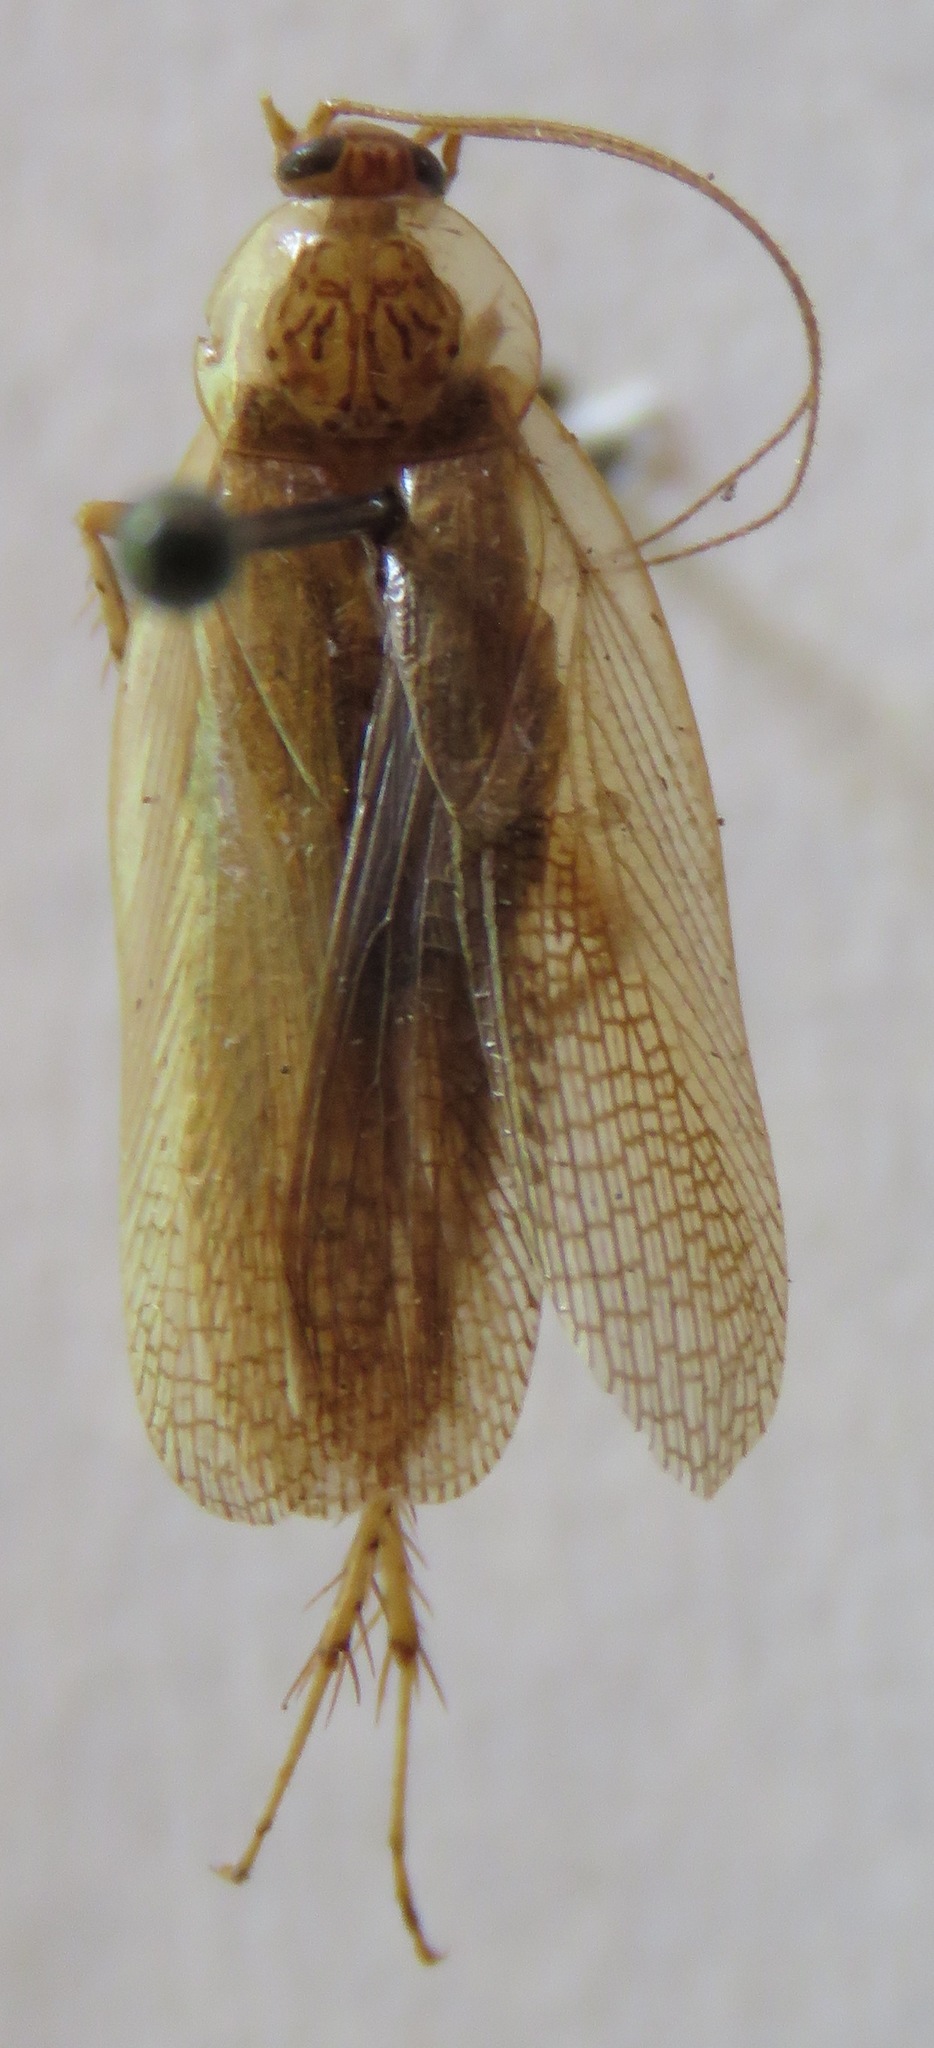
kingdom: Animalia
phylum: Arthropoda
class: Insecta
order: Blattodea
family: Ectobiidae
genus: Imblattella
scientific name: Imblattella chagrensis
